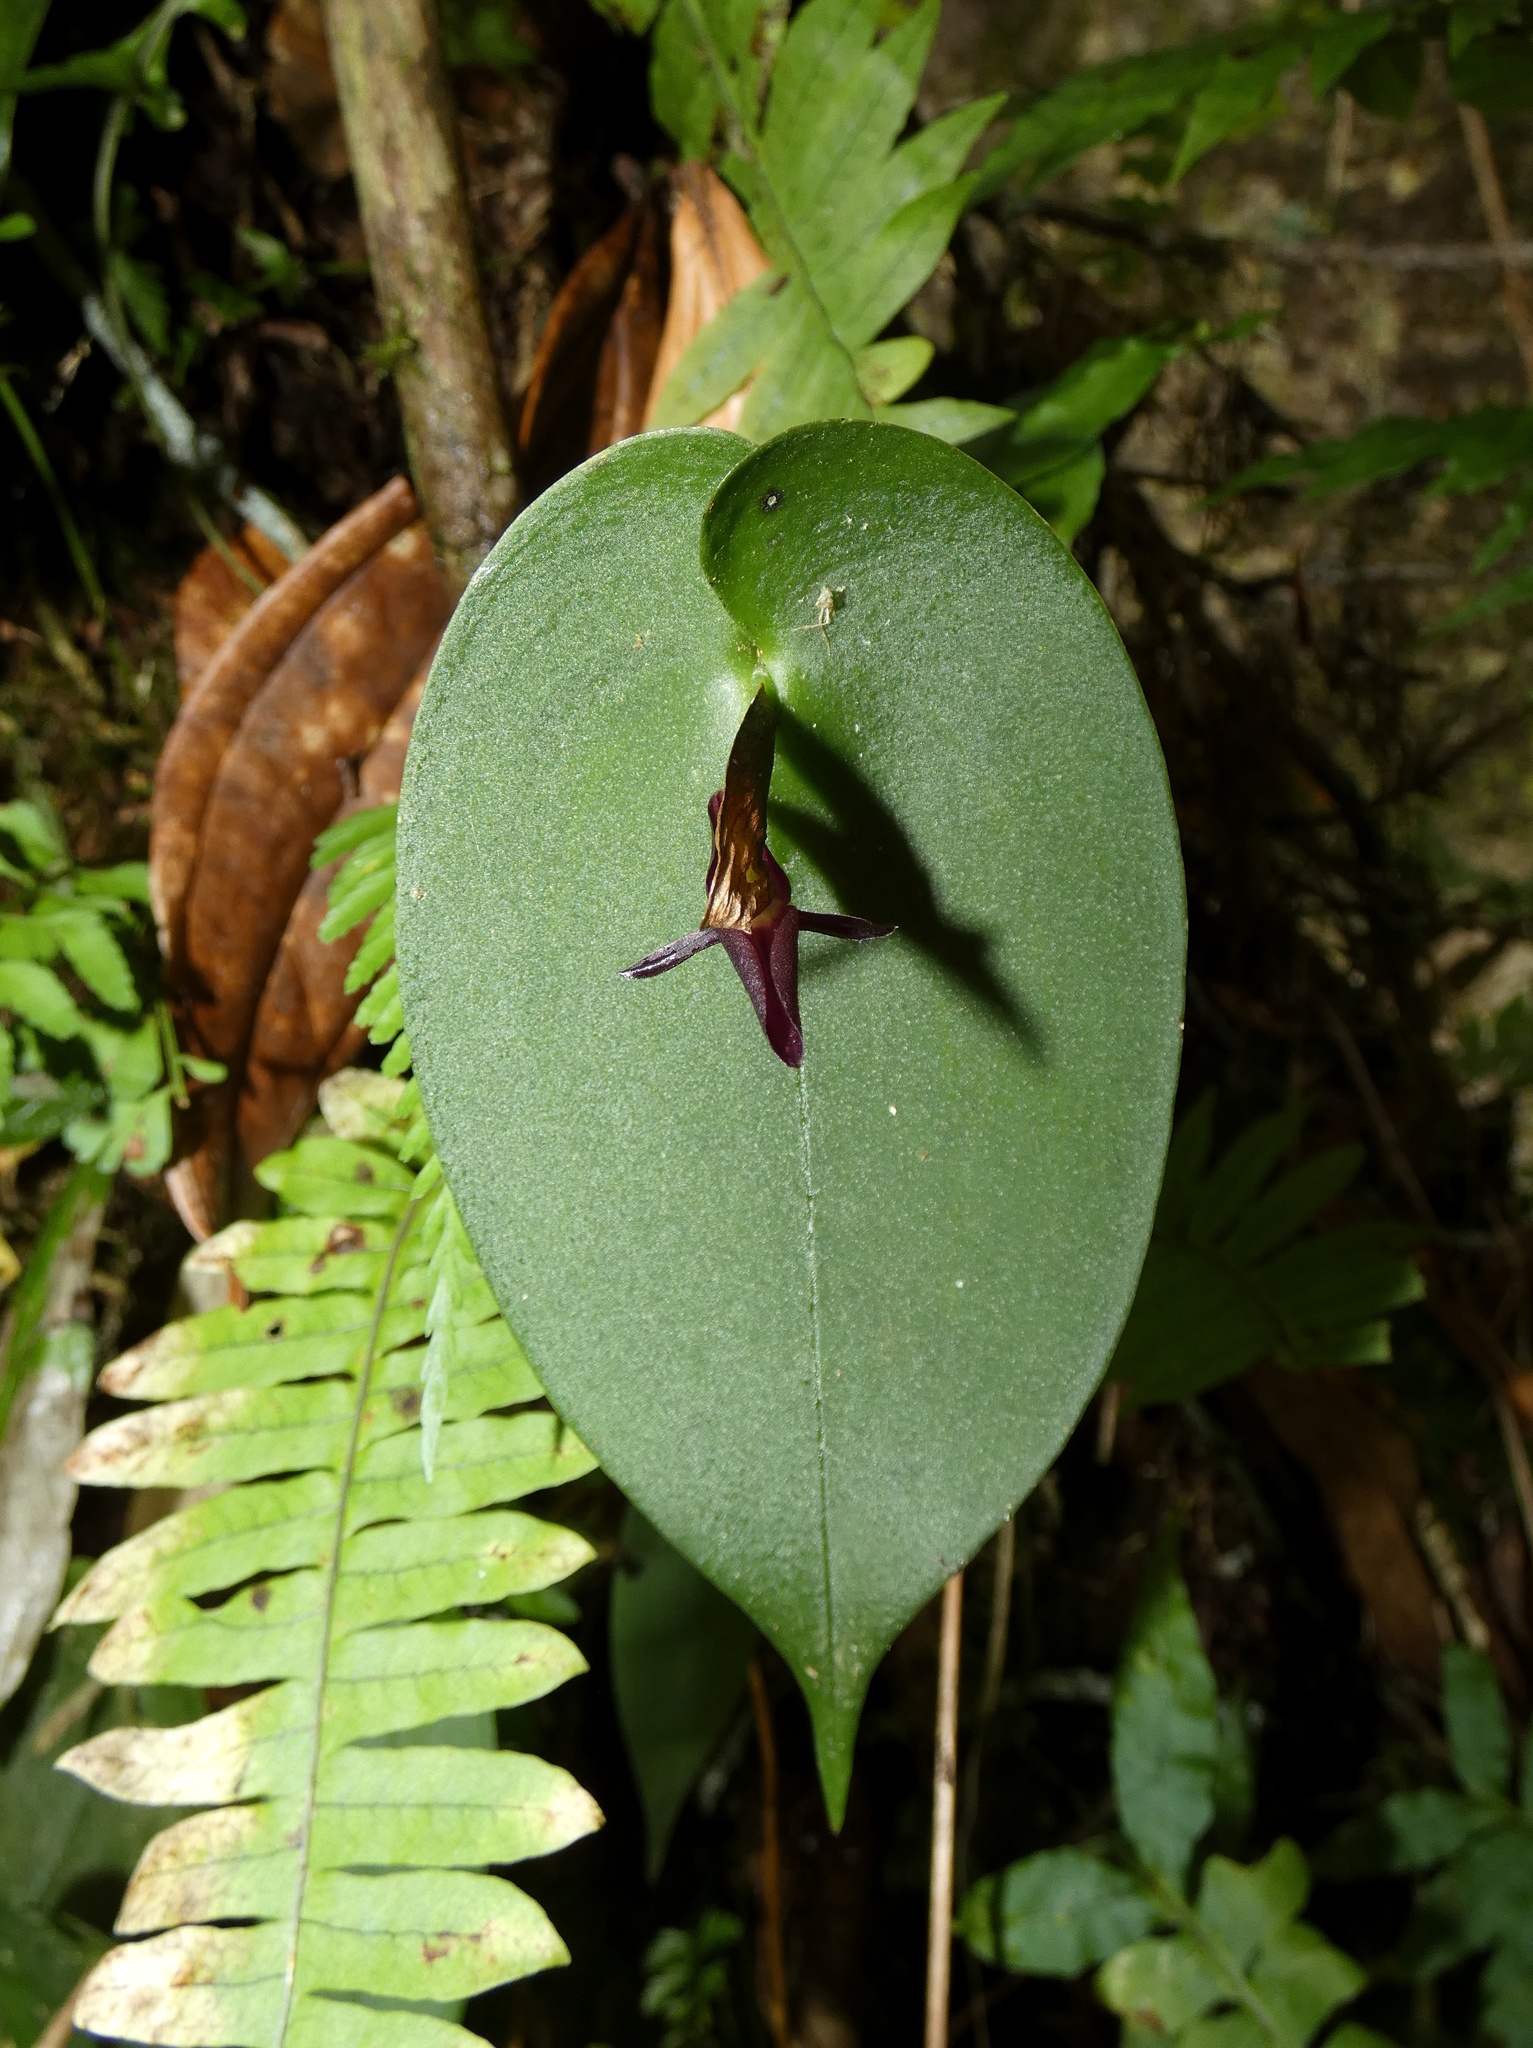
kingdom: Plantae
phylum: Tracheophyta
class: Liliopsida
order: Asparagales
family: Orchidaceae
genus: Pleurothallis
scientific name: Pleurothallis pudica
